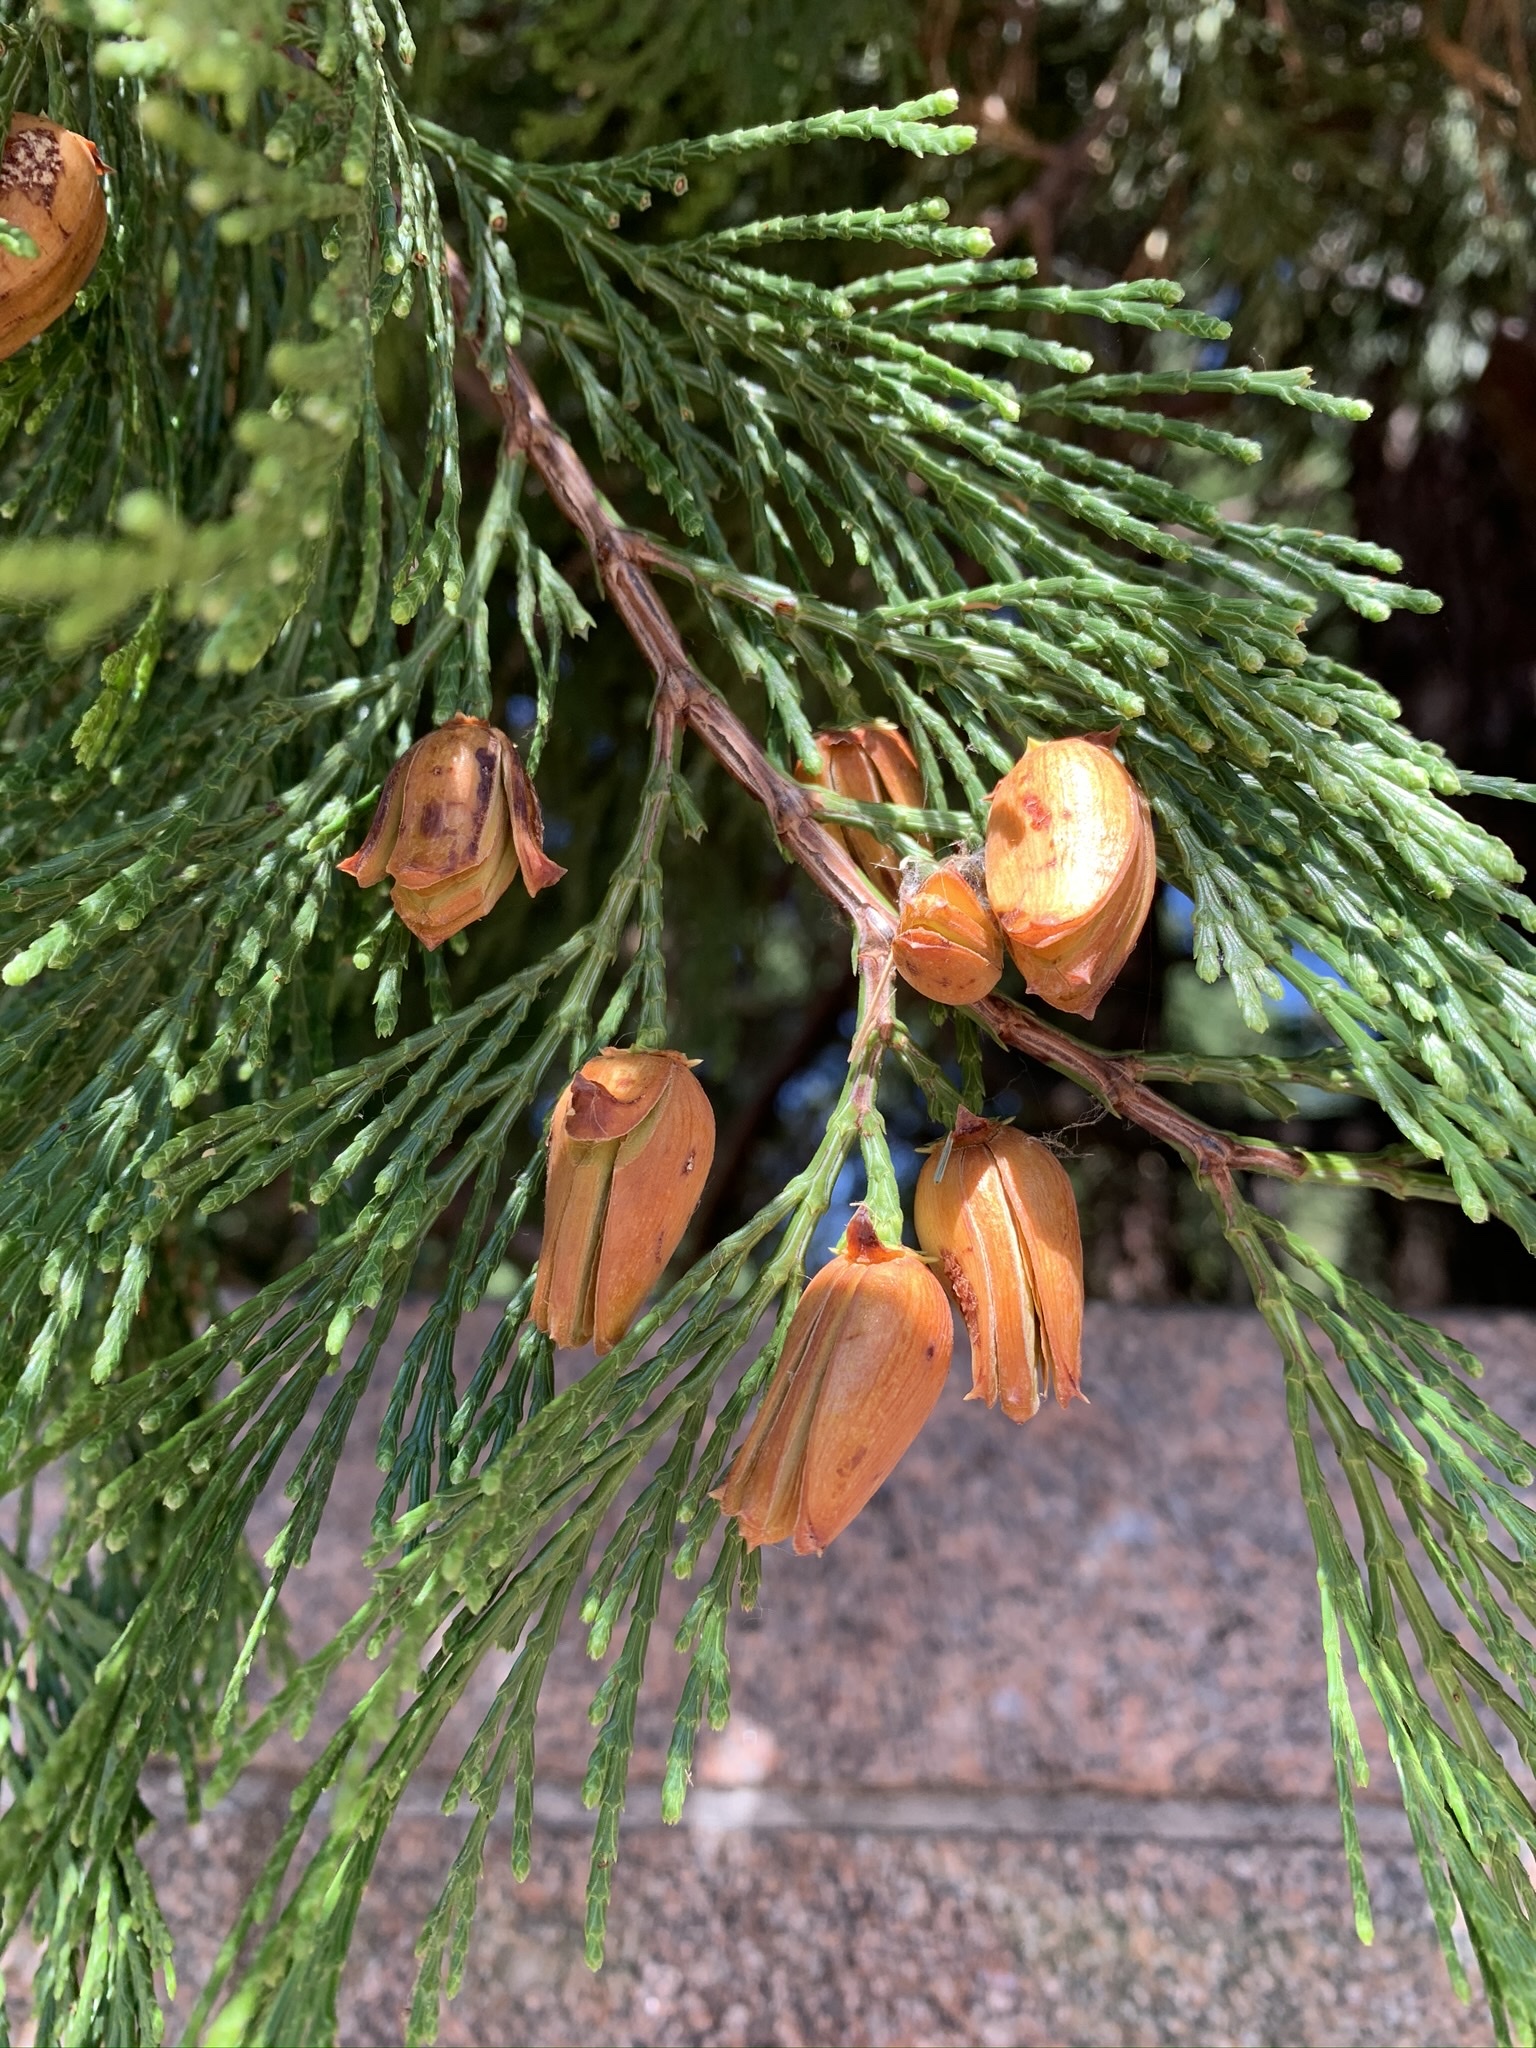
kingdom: Plantae
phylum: Tracheophyta
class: Pinopsida
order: Pinales
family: Cupressaceae
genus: Calocedrus
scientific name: Calocedrus decurrens
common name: Californian incense-cedar
